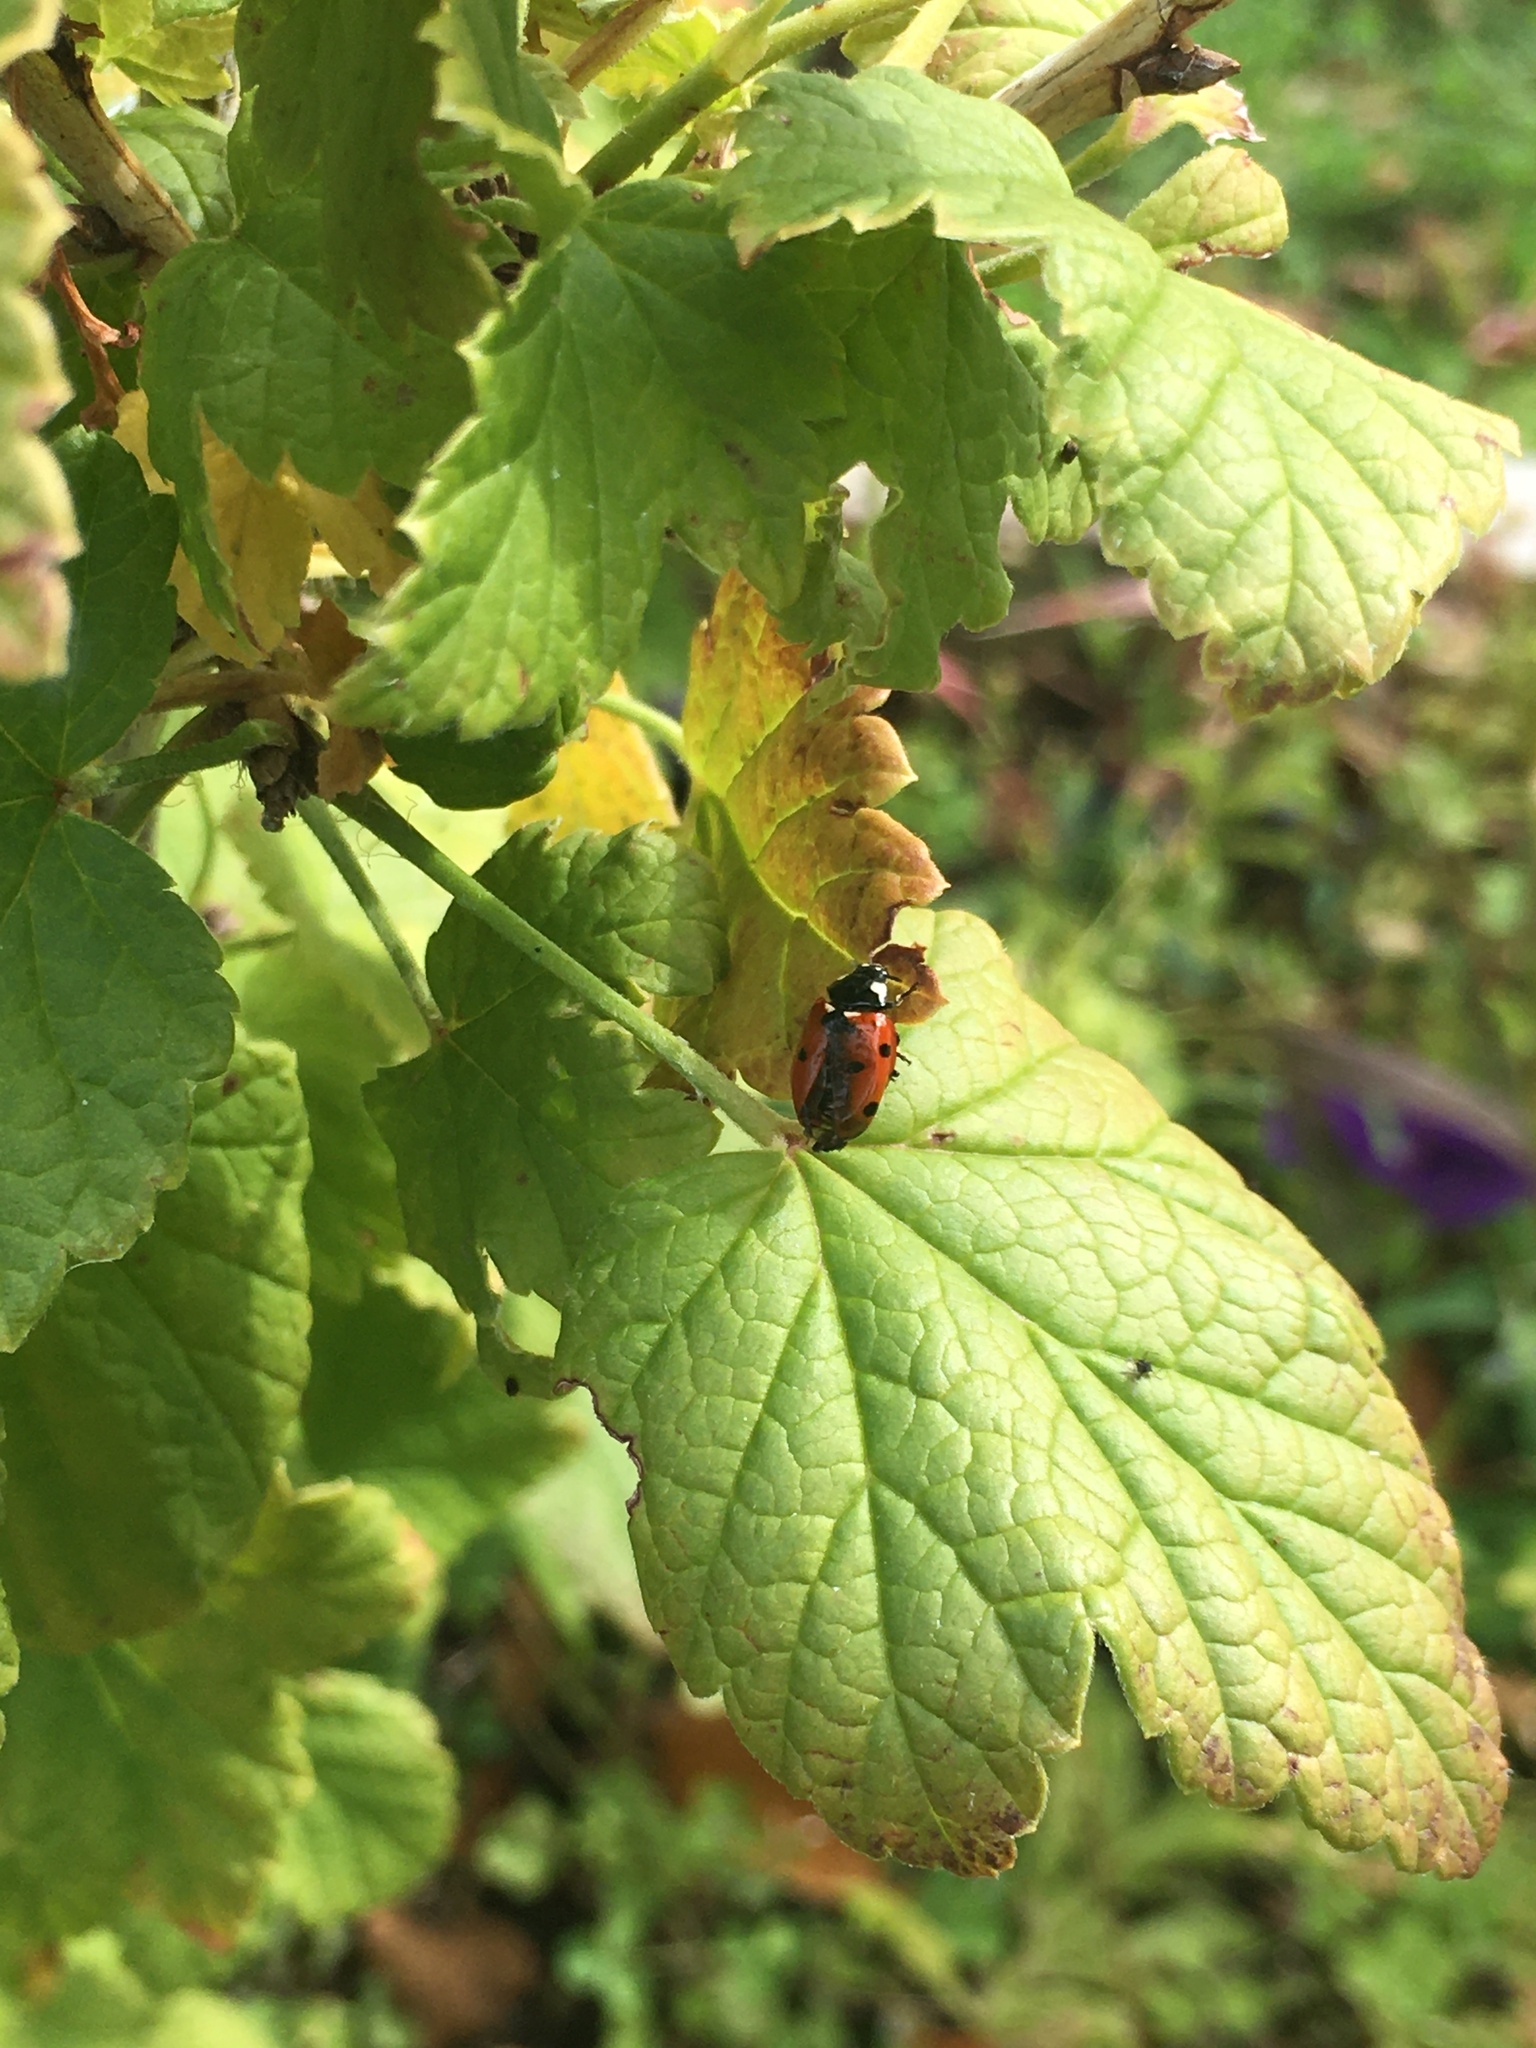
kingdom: Animalia
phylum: Arthropoda
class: Insecta
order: Coleoptera
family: Coccinellidae
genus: Coccinella
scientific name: Coccinella septempunctata
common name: Sevenspotted lady beetle
